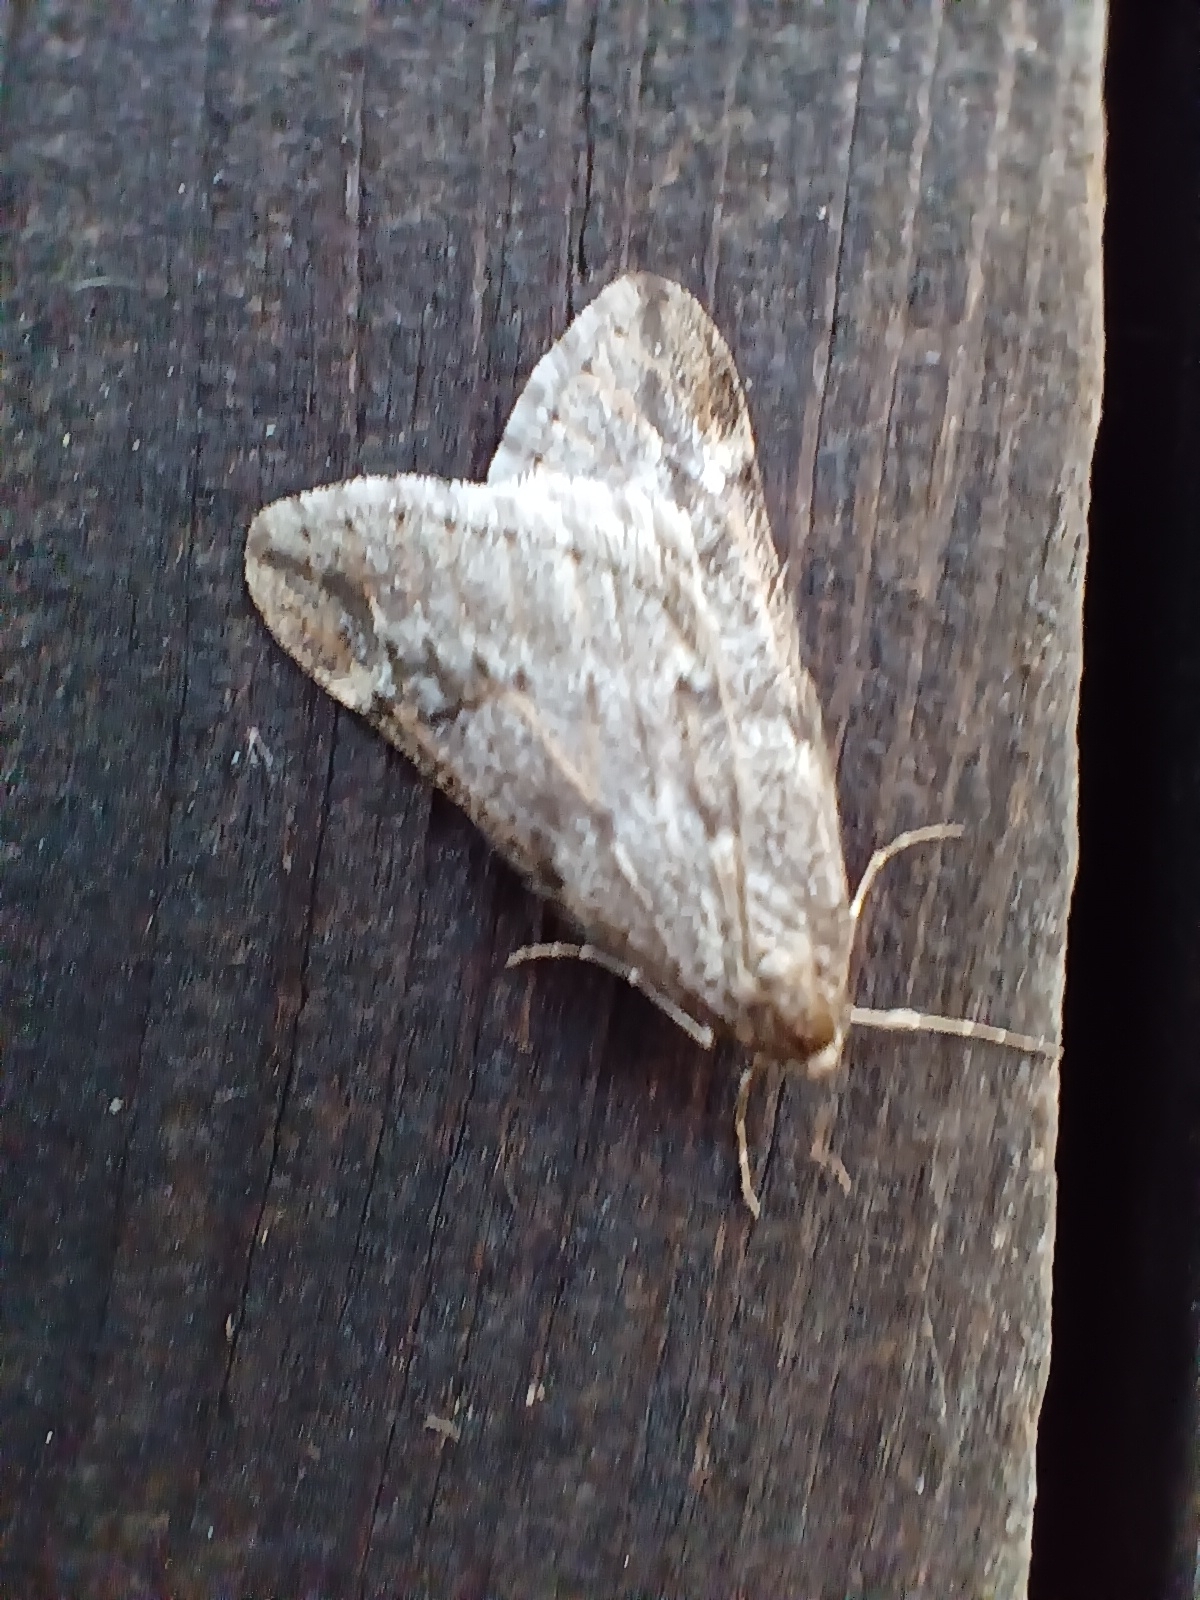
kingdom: Animalia
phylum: Arthropoda
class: Insecta
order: Lepidoptera
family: Geometridae
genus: Alsophila
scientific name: Alsophila aescularia
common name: March moth
